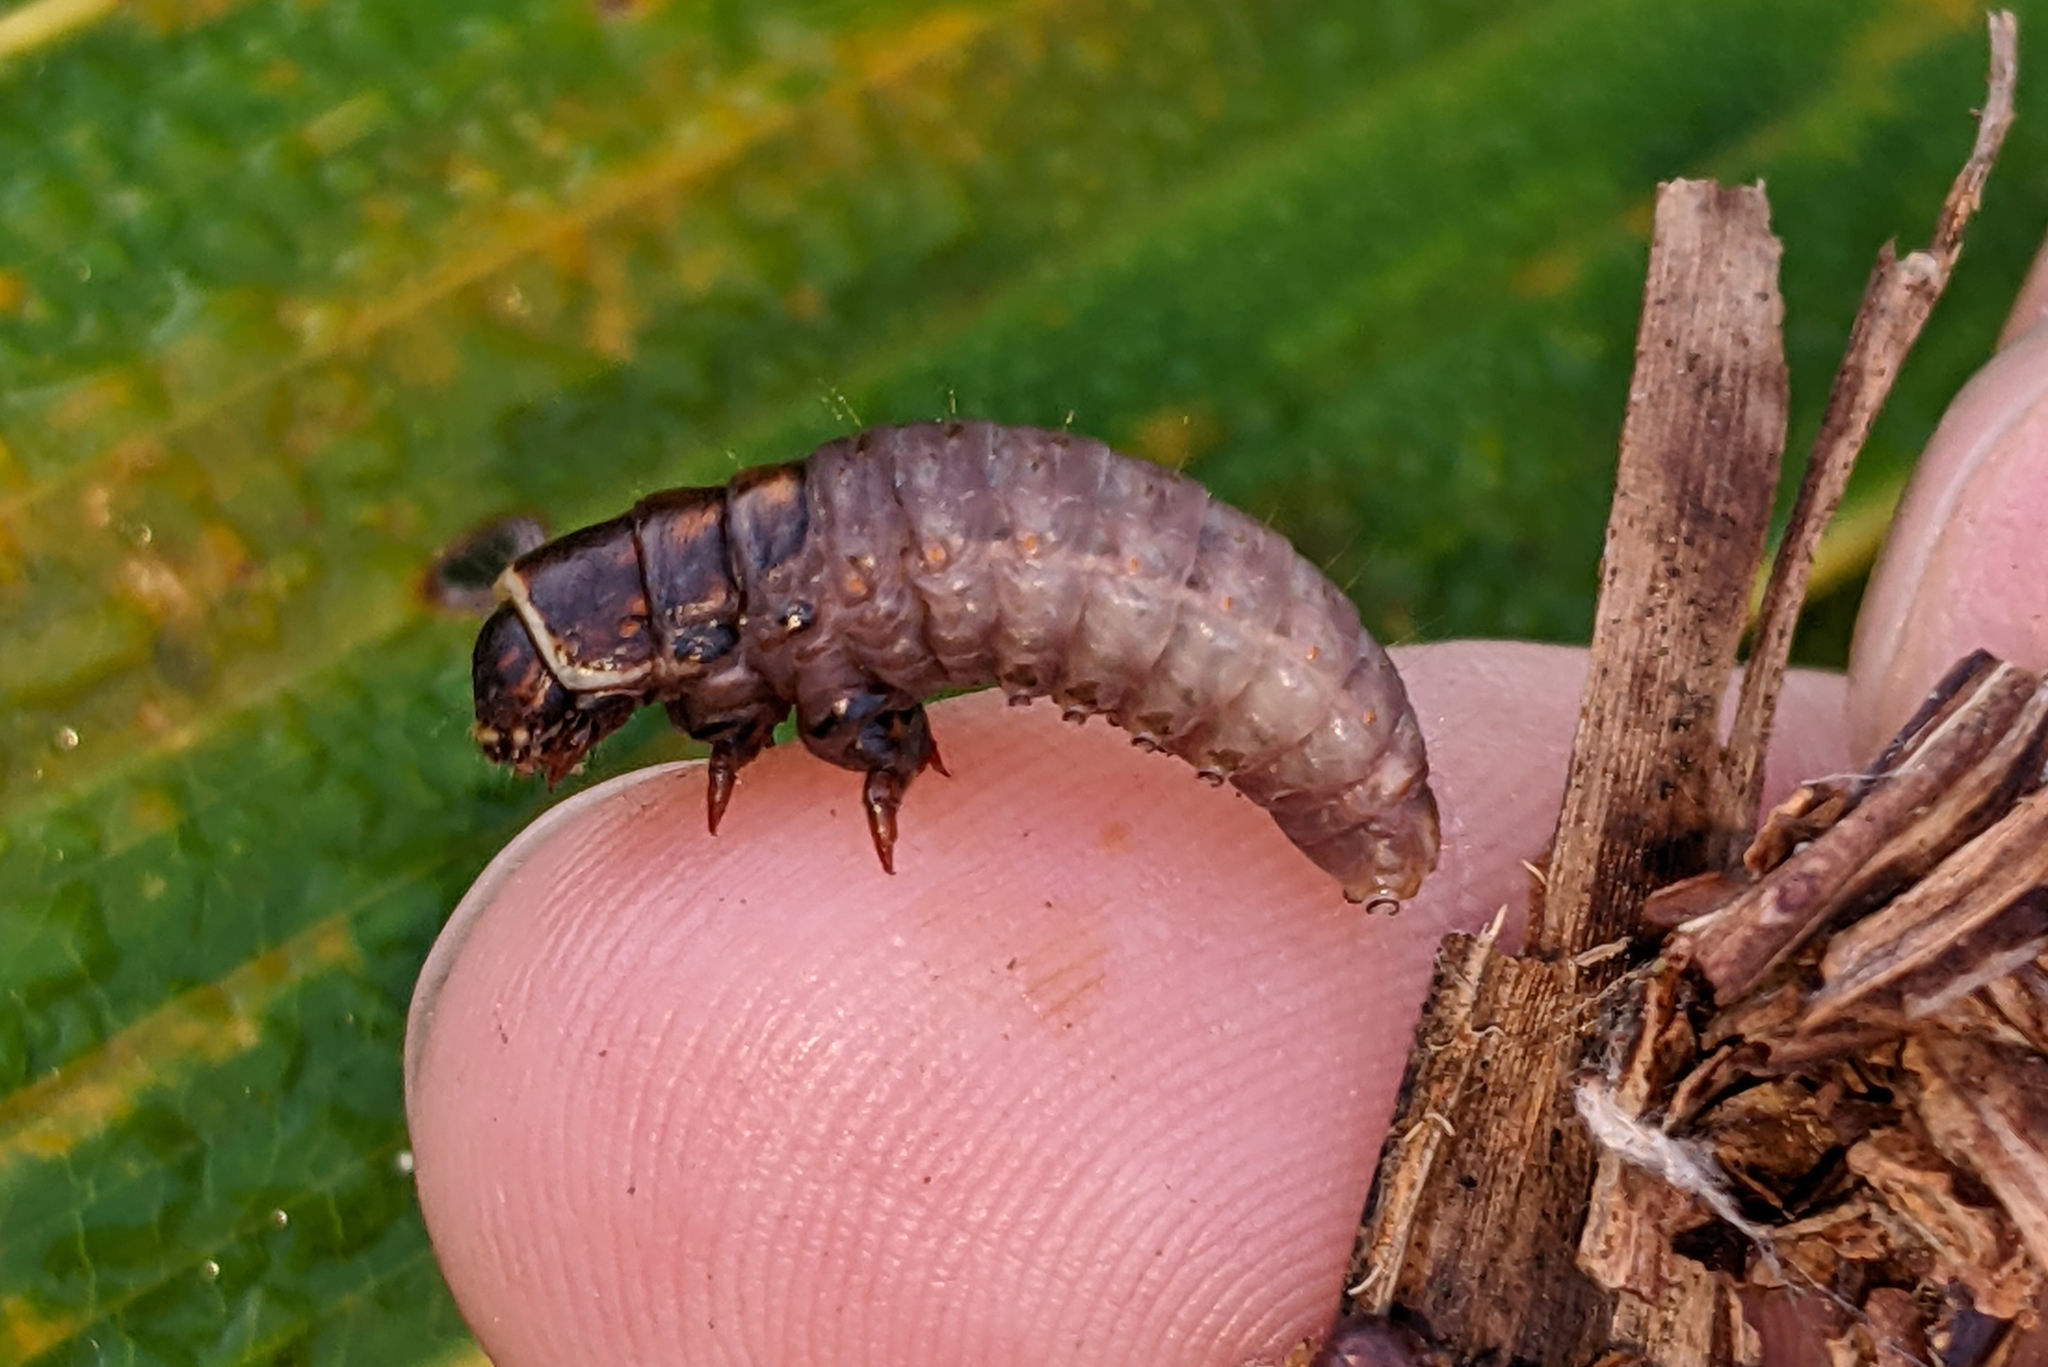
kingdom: Animalia
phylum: Arthropoda
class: Insecta
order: Lepidoptera
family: Psychidae
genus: Mahasena
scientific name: Mahasena andamana
